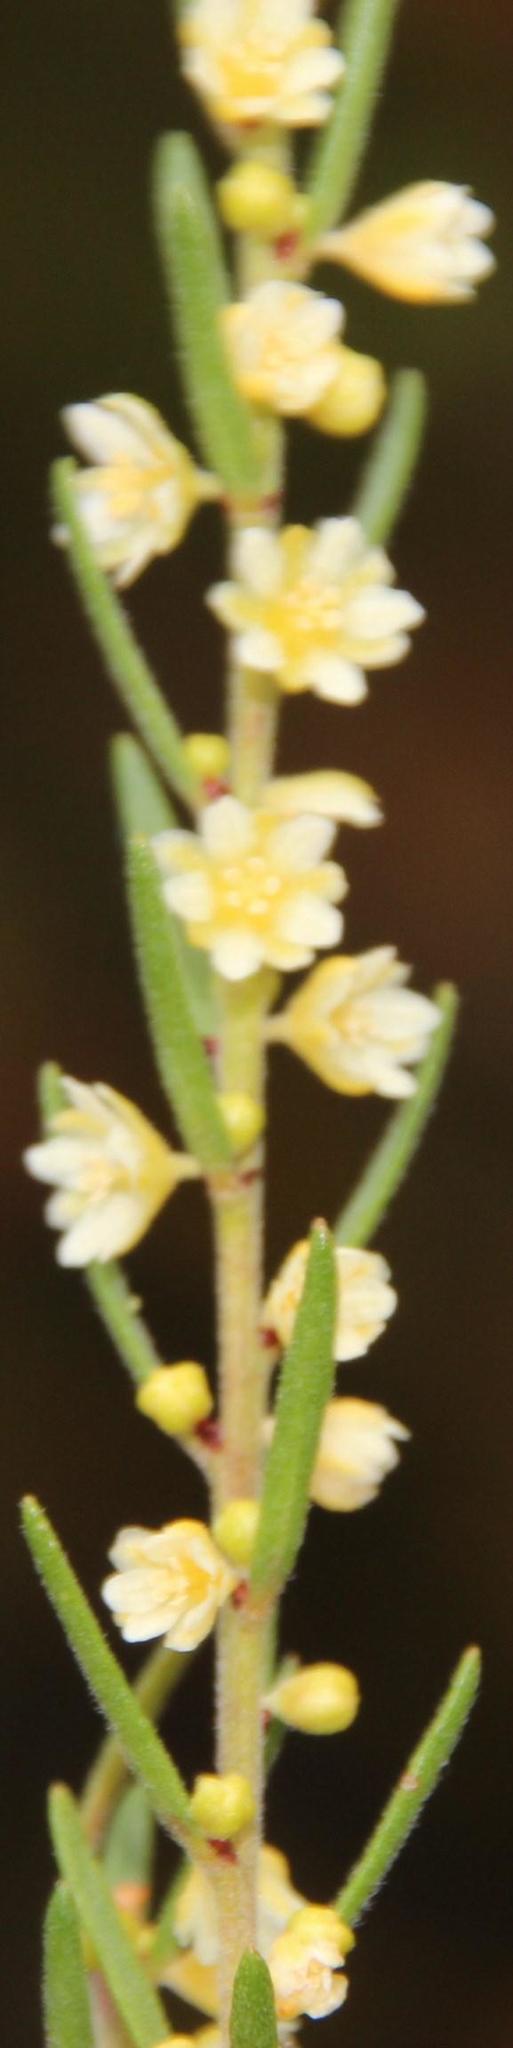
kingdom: Plantae
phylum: Tracheophyta
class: Magnoliopsida
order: Malpighiales
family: Peraceae
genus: Clutia
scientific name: Clutia ericoides
